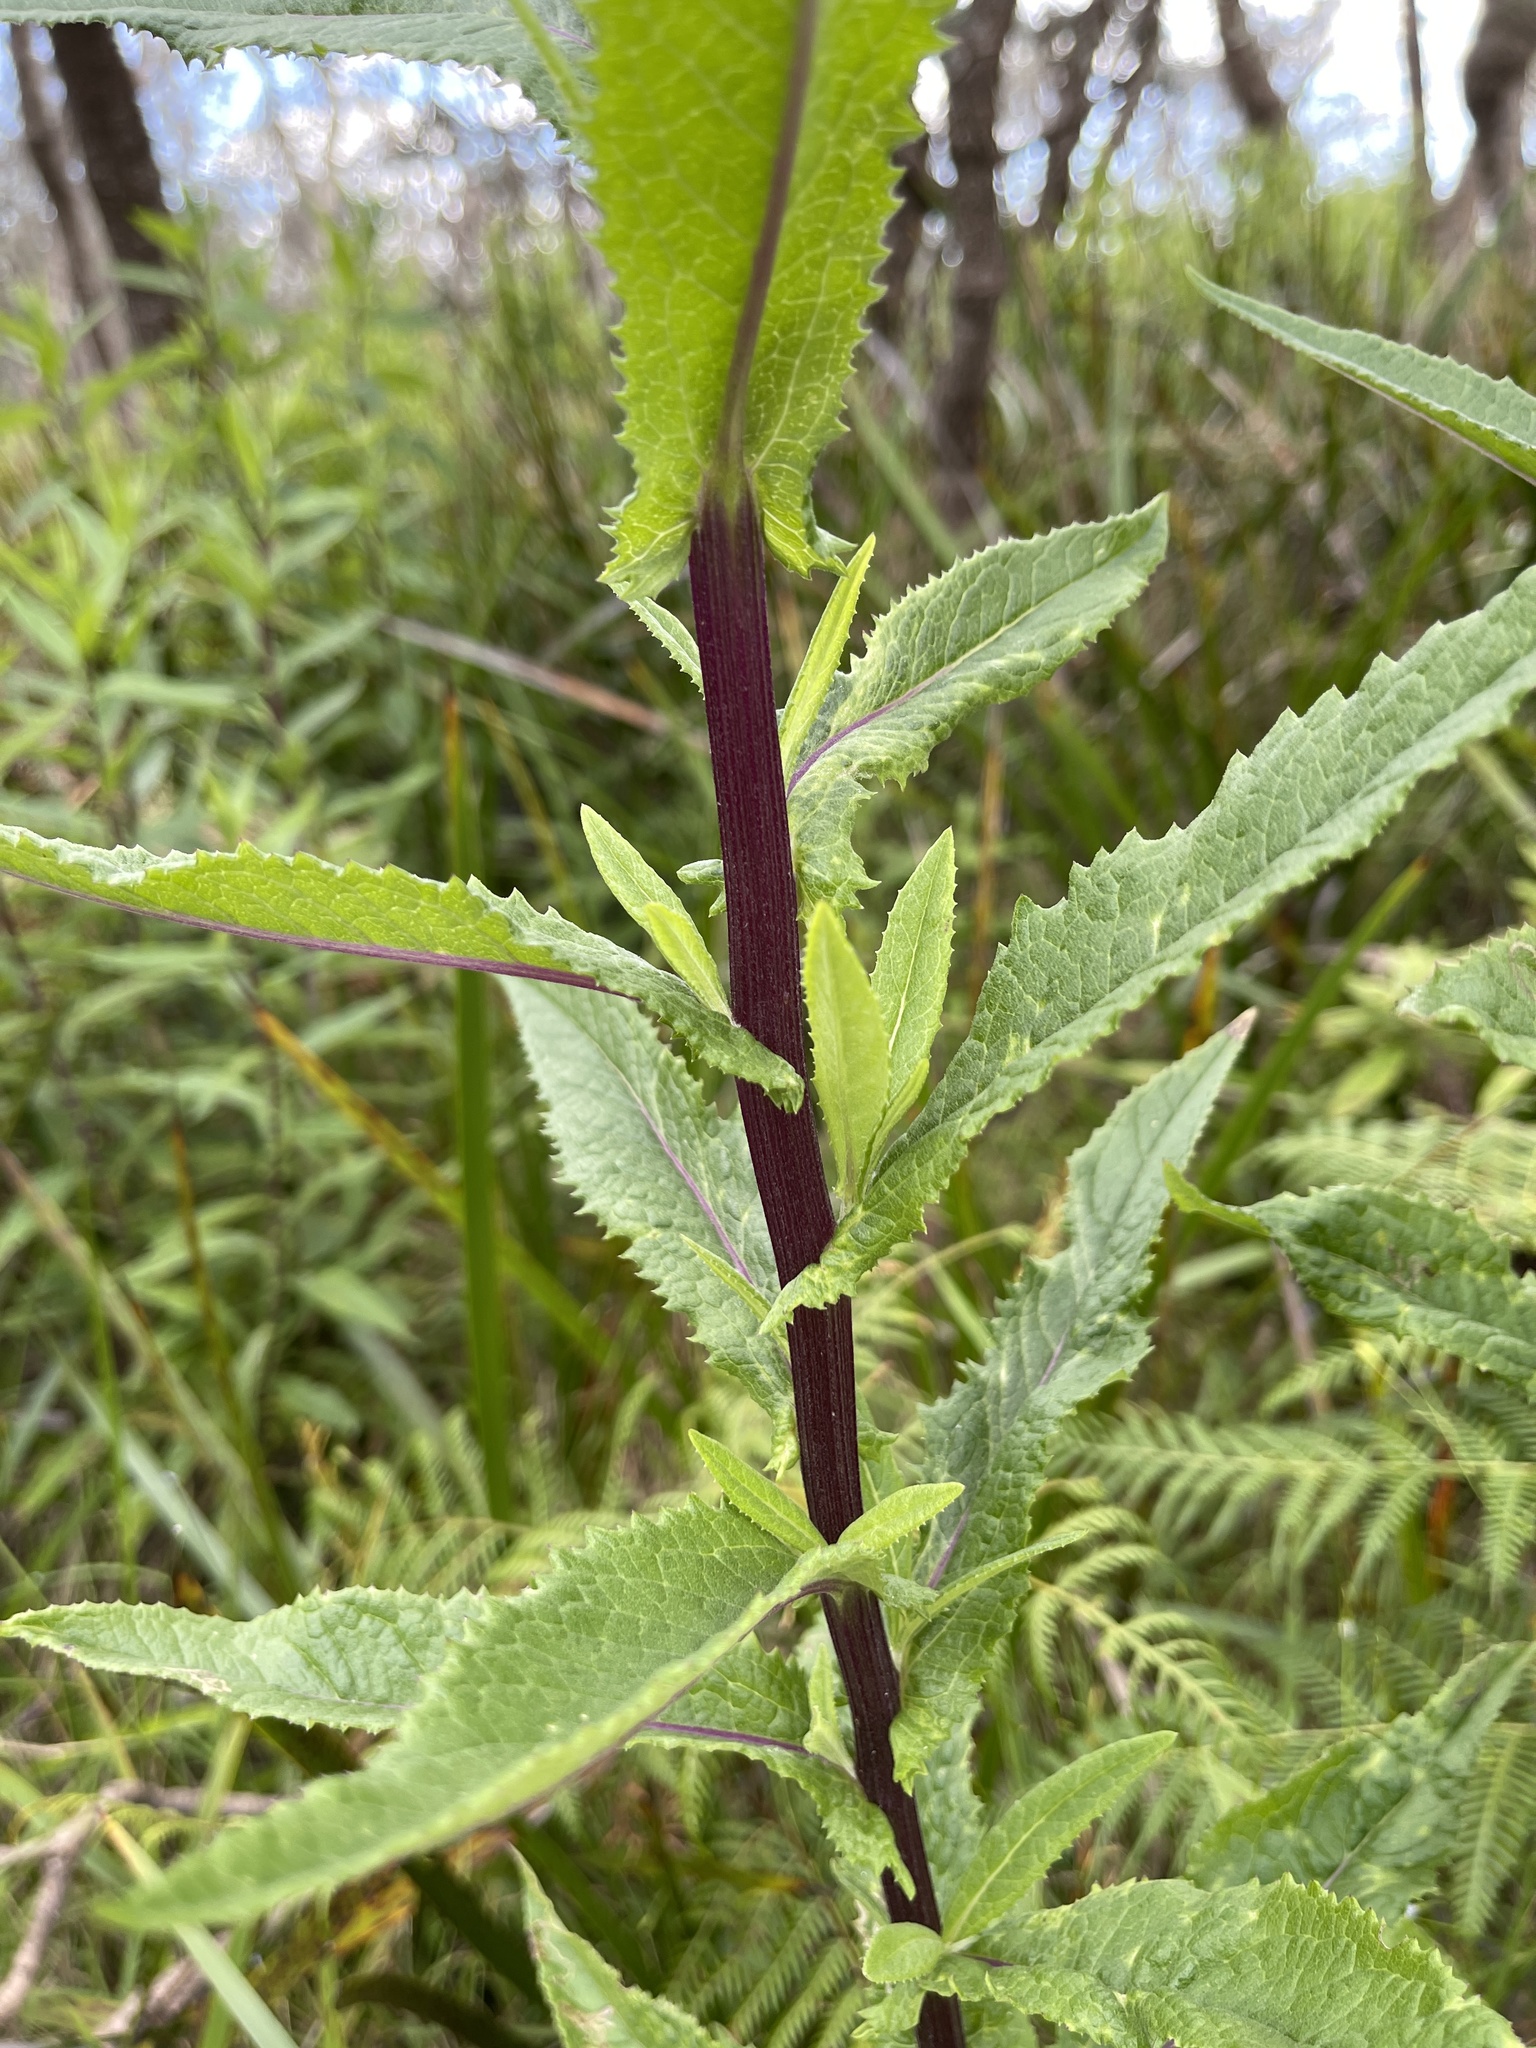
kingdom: Plantae
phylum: Tracheophyta
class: Magnoliopsida
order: Asterales
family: Asteraceae
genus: Senecio
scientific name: Senecio minimus
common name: Toothed fireweed
